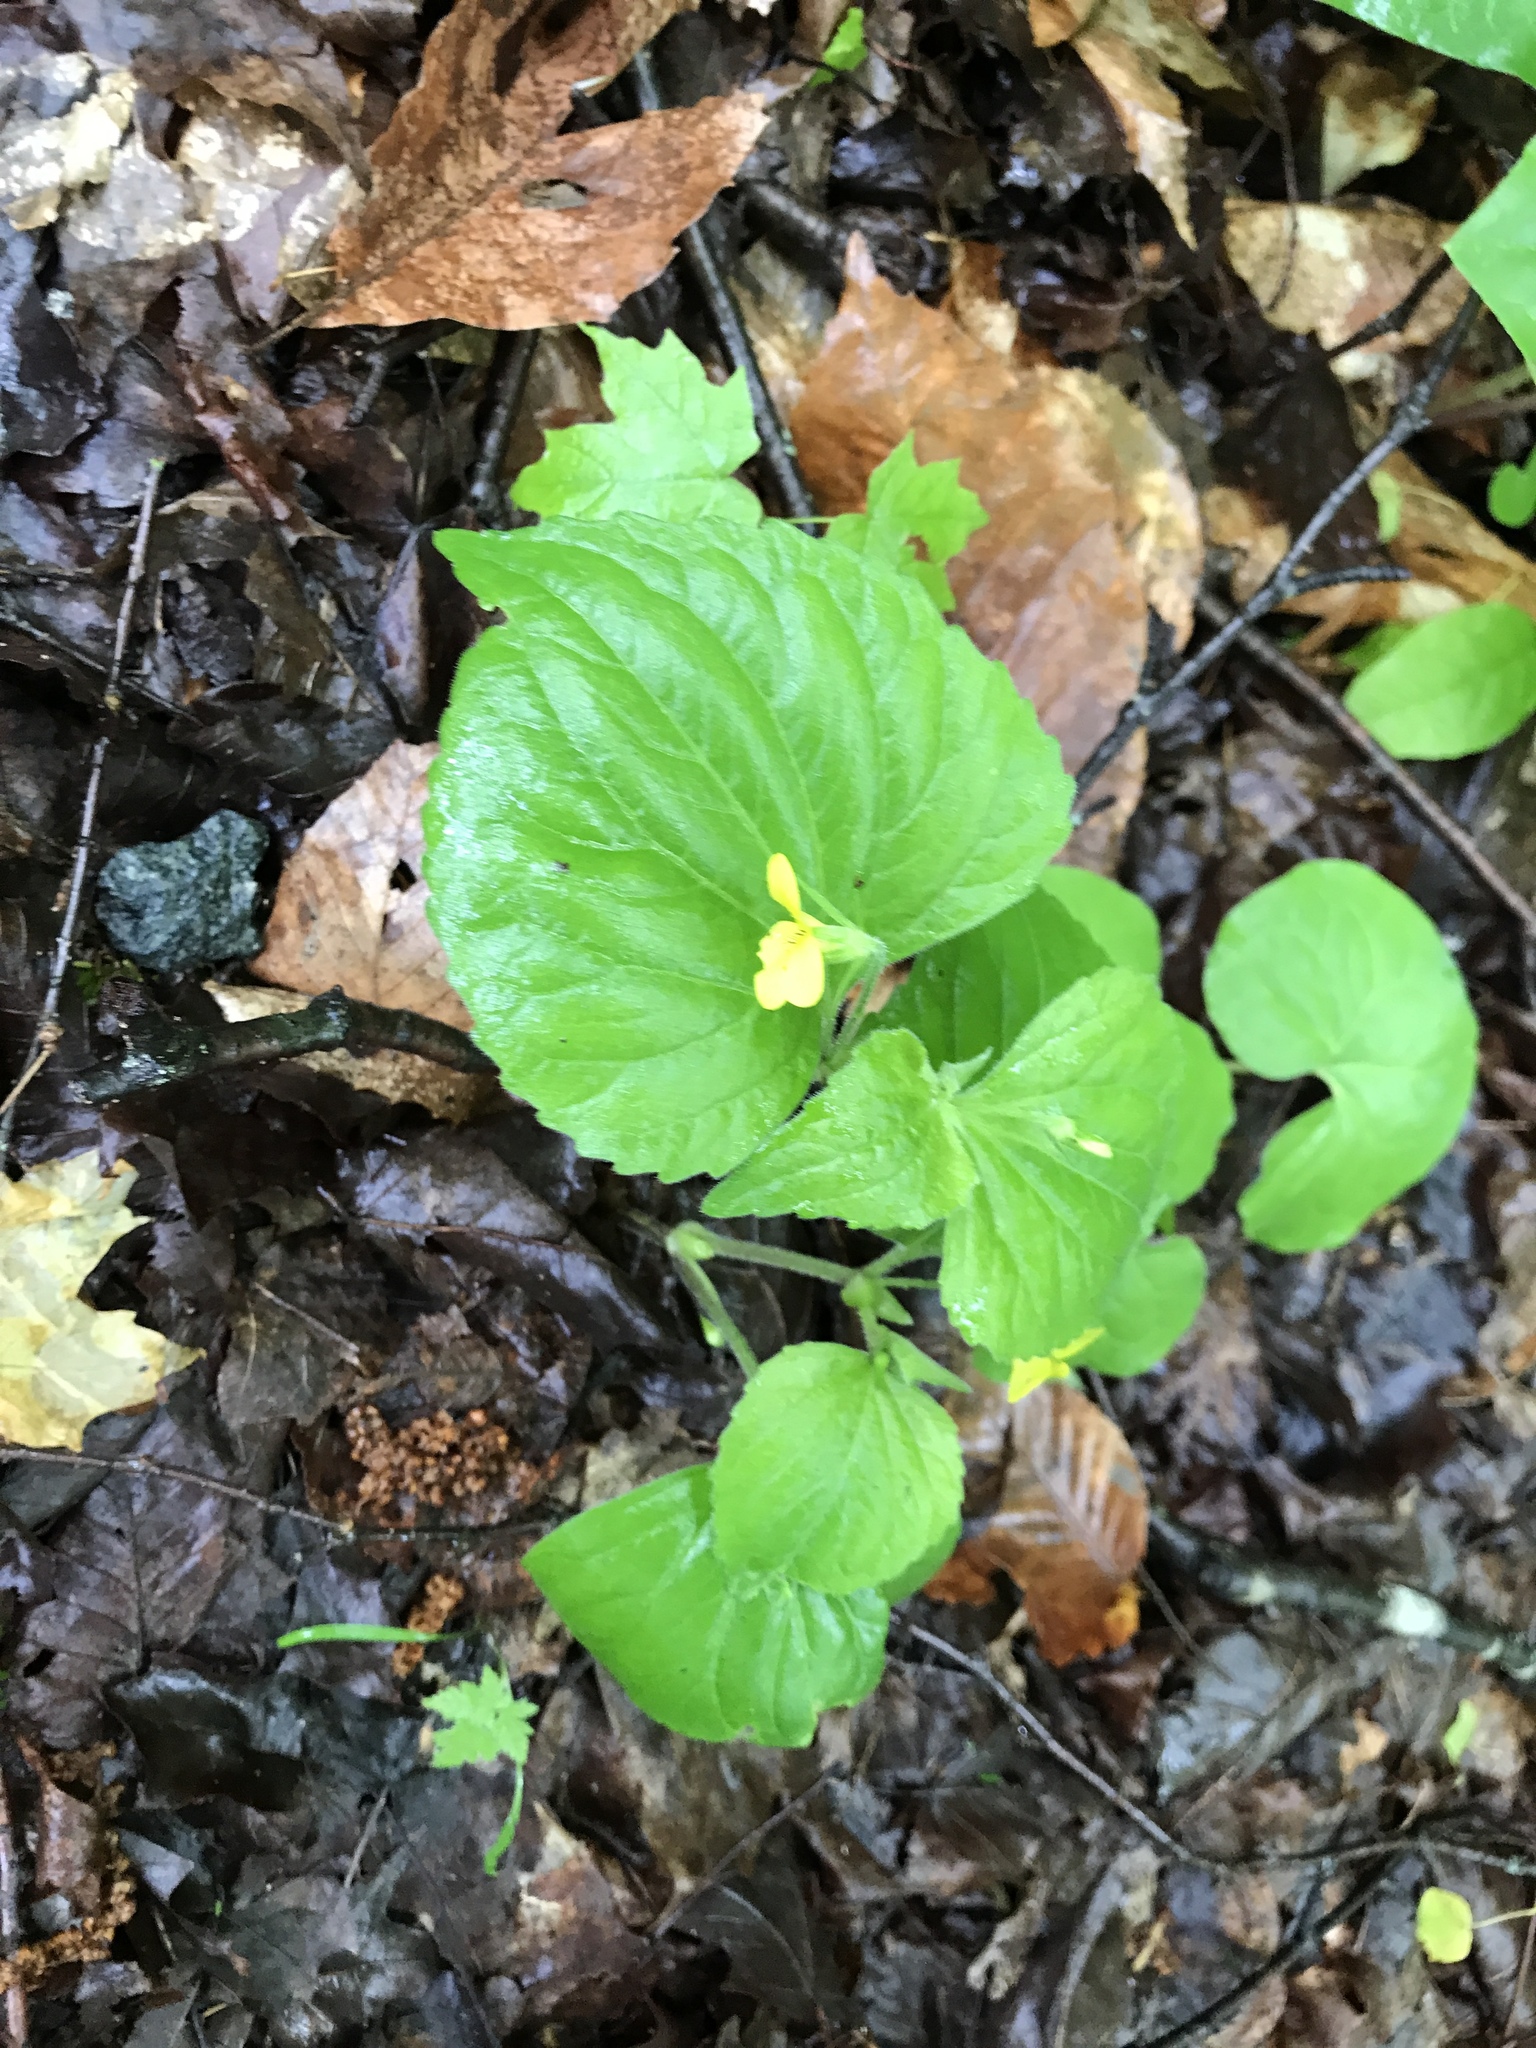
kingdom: Plantae
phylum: Tracheophyta
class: Magnoliopsida
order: Malpighiales
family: Violaceae
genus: Viola
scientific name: Viola eriocarpa
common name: Smooth yellow violet
